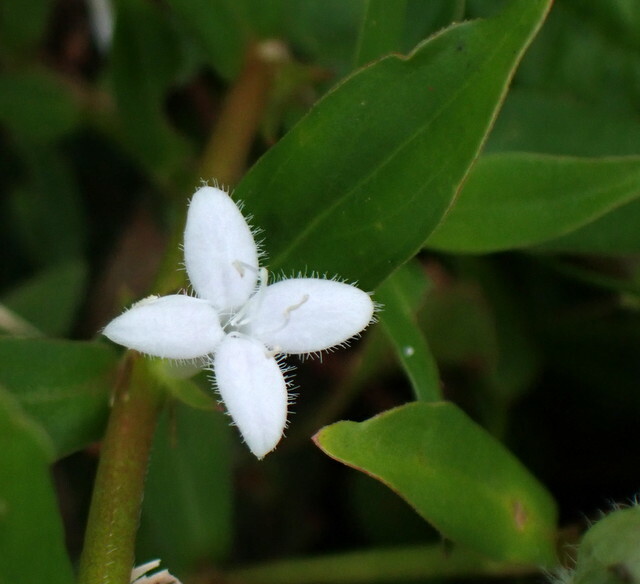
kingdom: Plantae
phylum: Tracheophyta
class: Magnoliopsida
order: Gentianales
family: Rubiaceae
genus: Diodia
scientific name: Diodia virginiana
